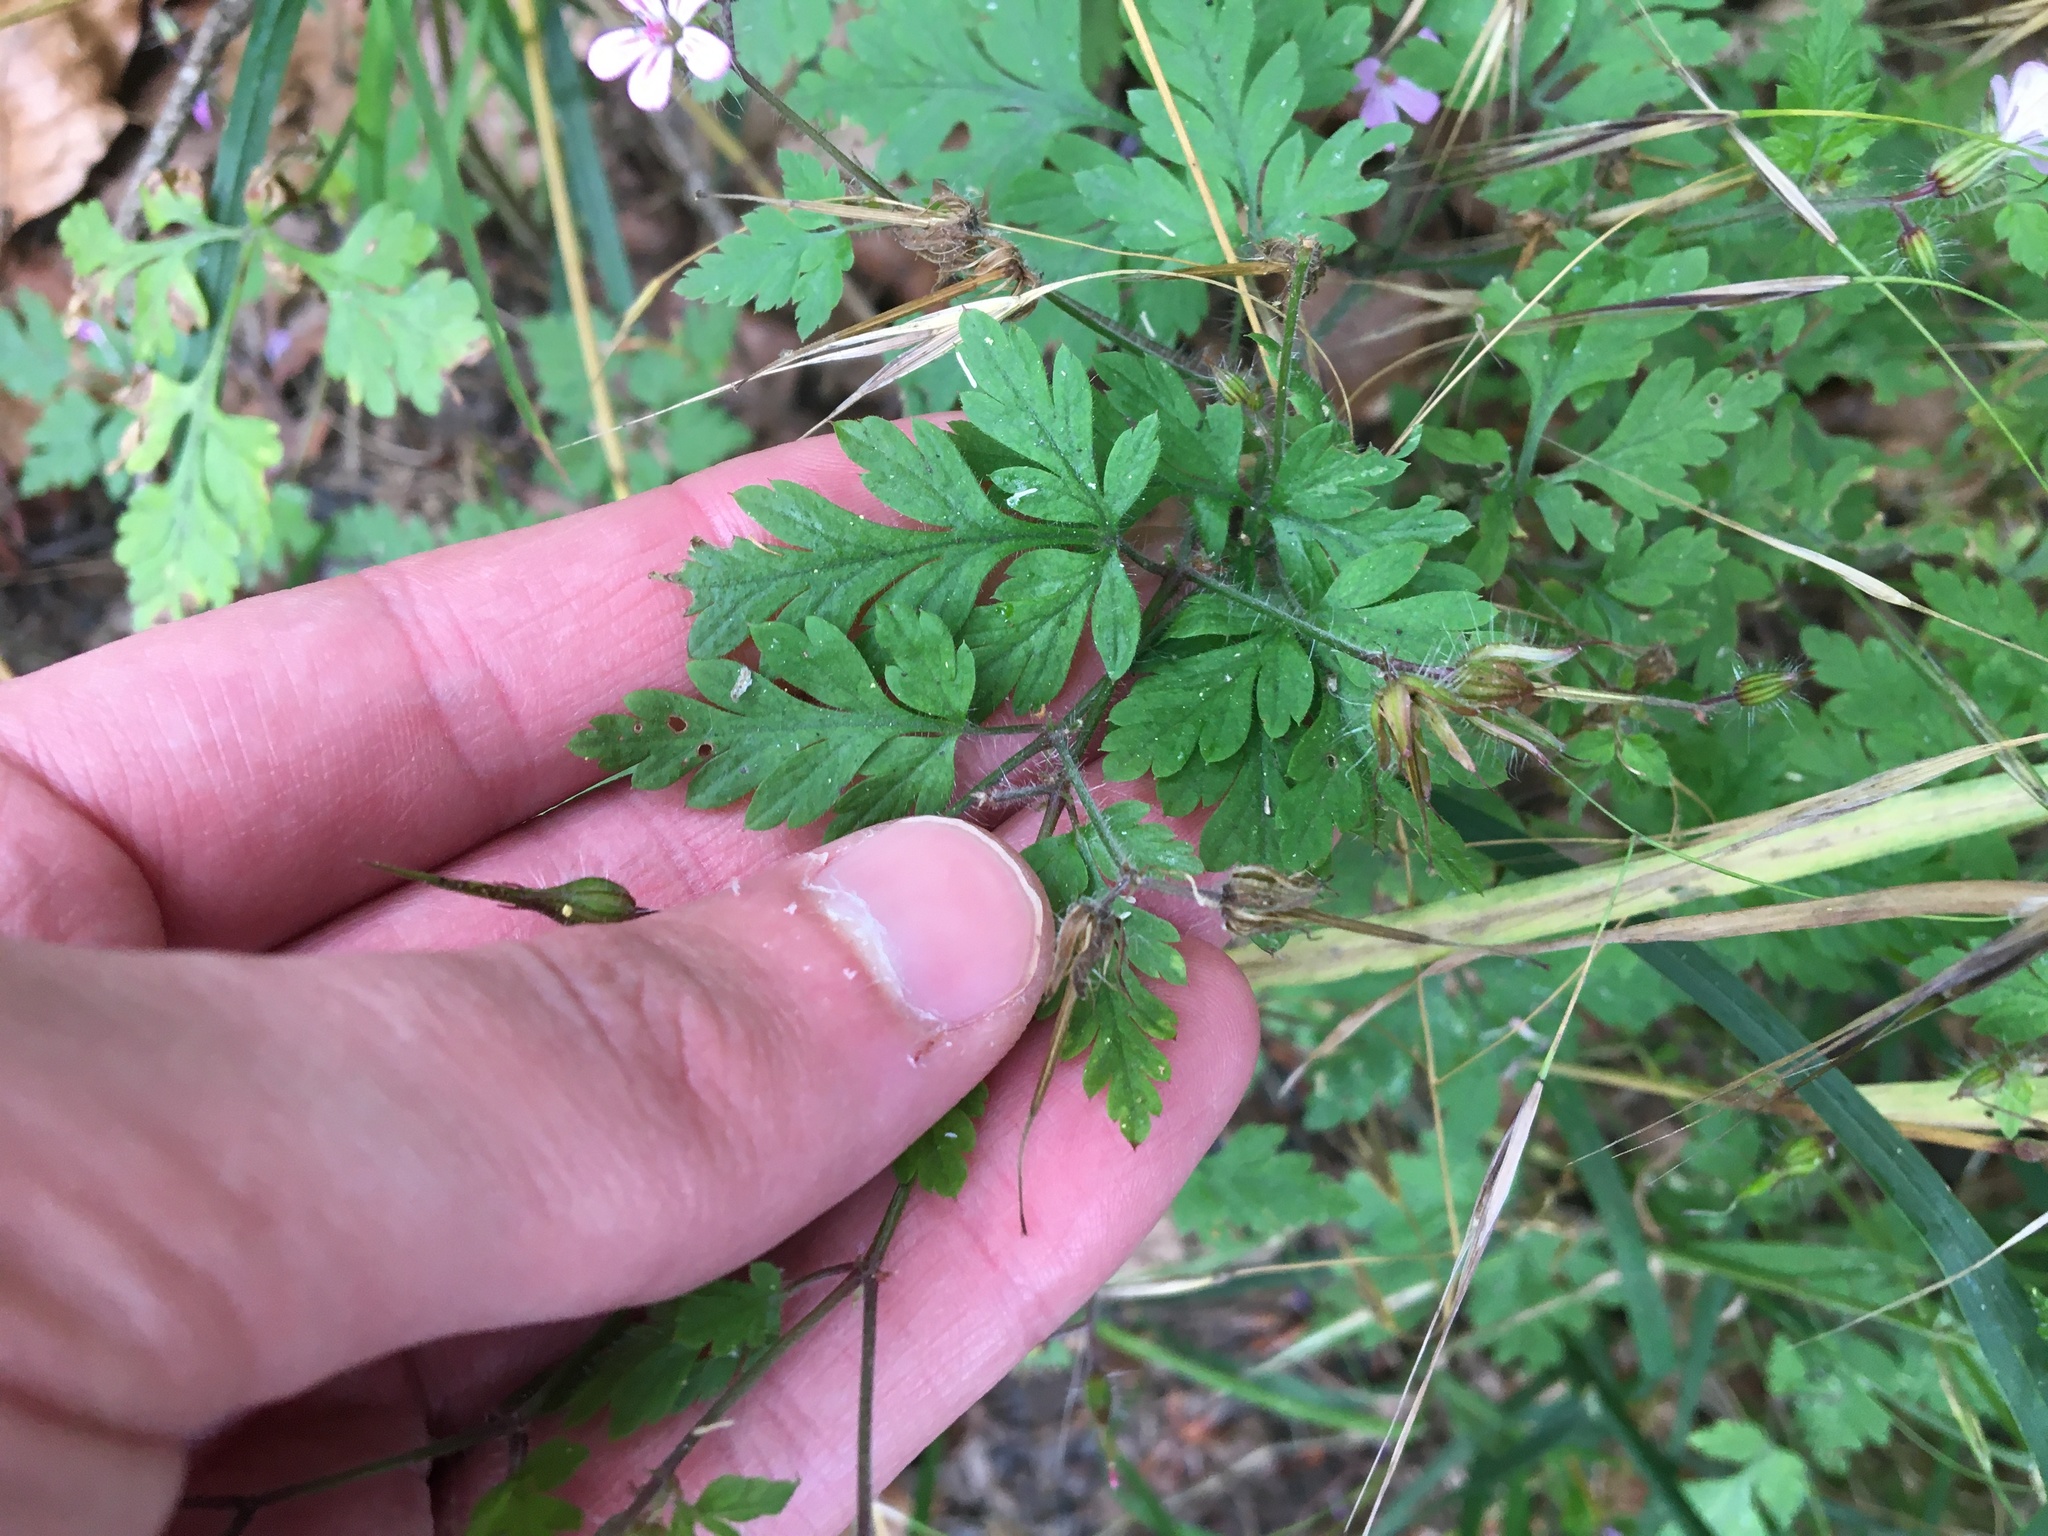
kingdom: Plantae
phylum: Tracheophyta
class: Magnoliopsida
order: Geraniales
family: Geraniaceae
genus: Geranium
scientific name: Geranium robertianum
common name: Herb-robert
